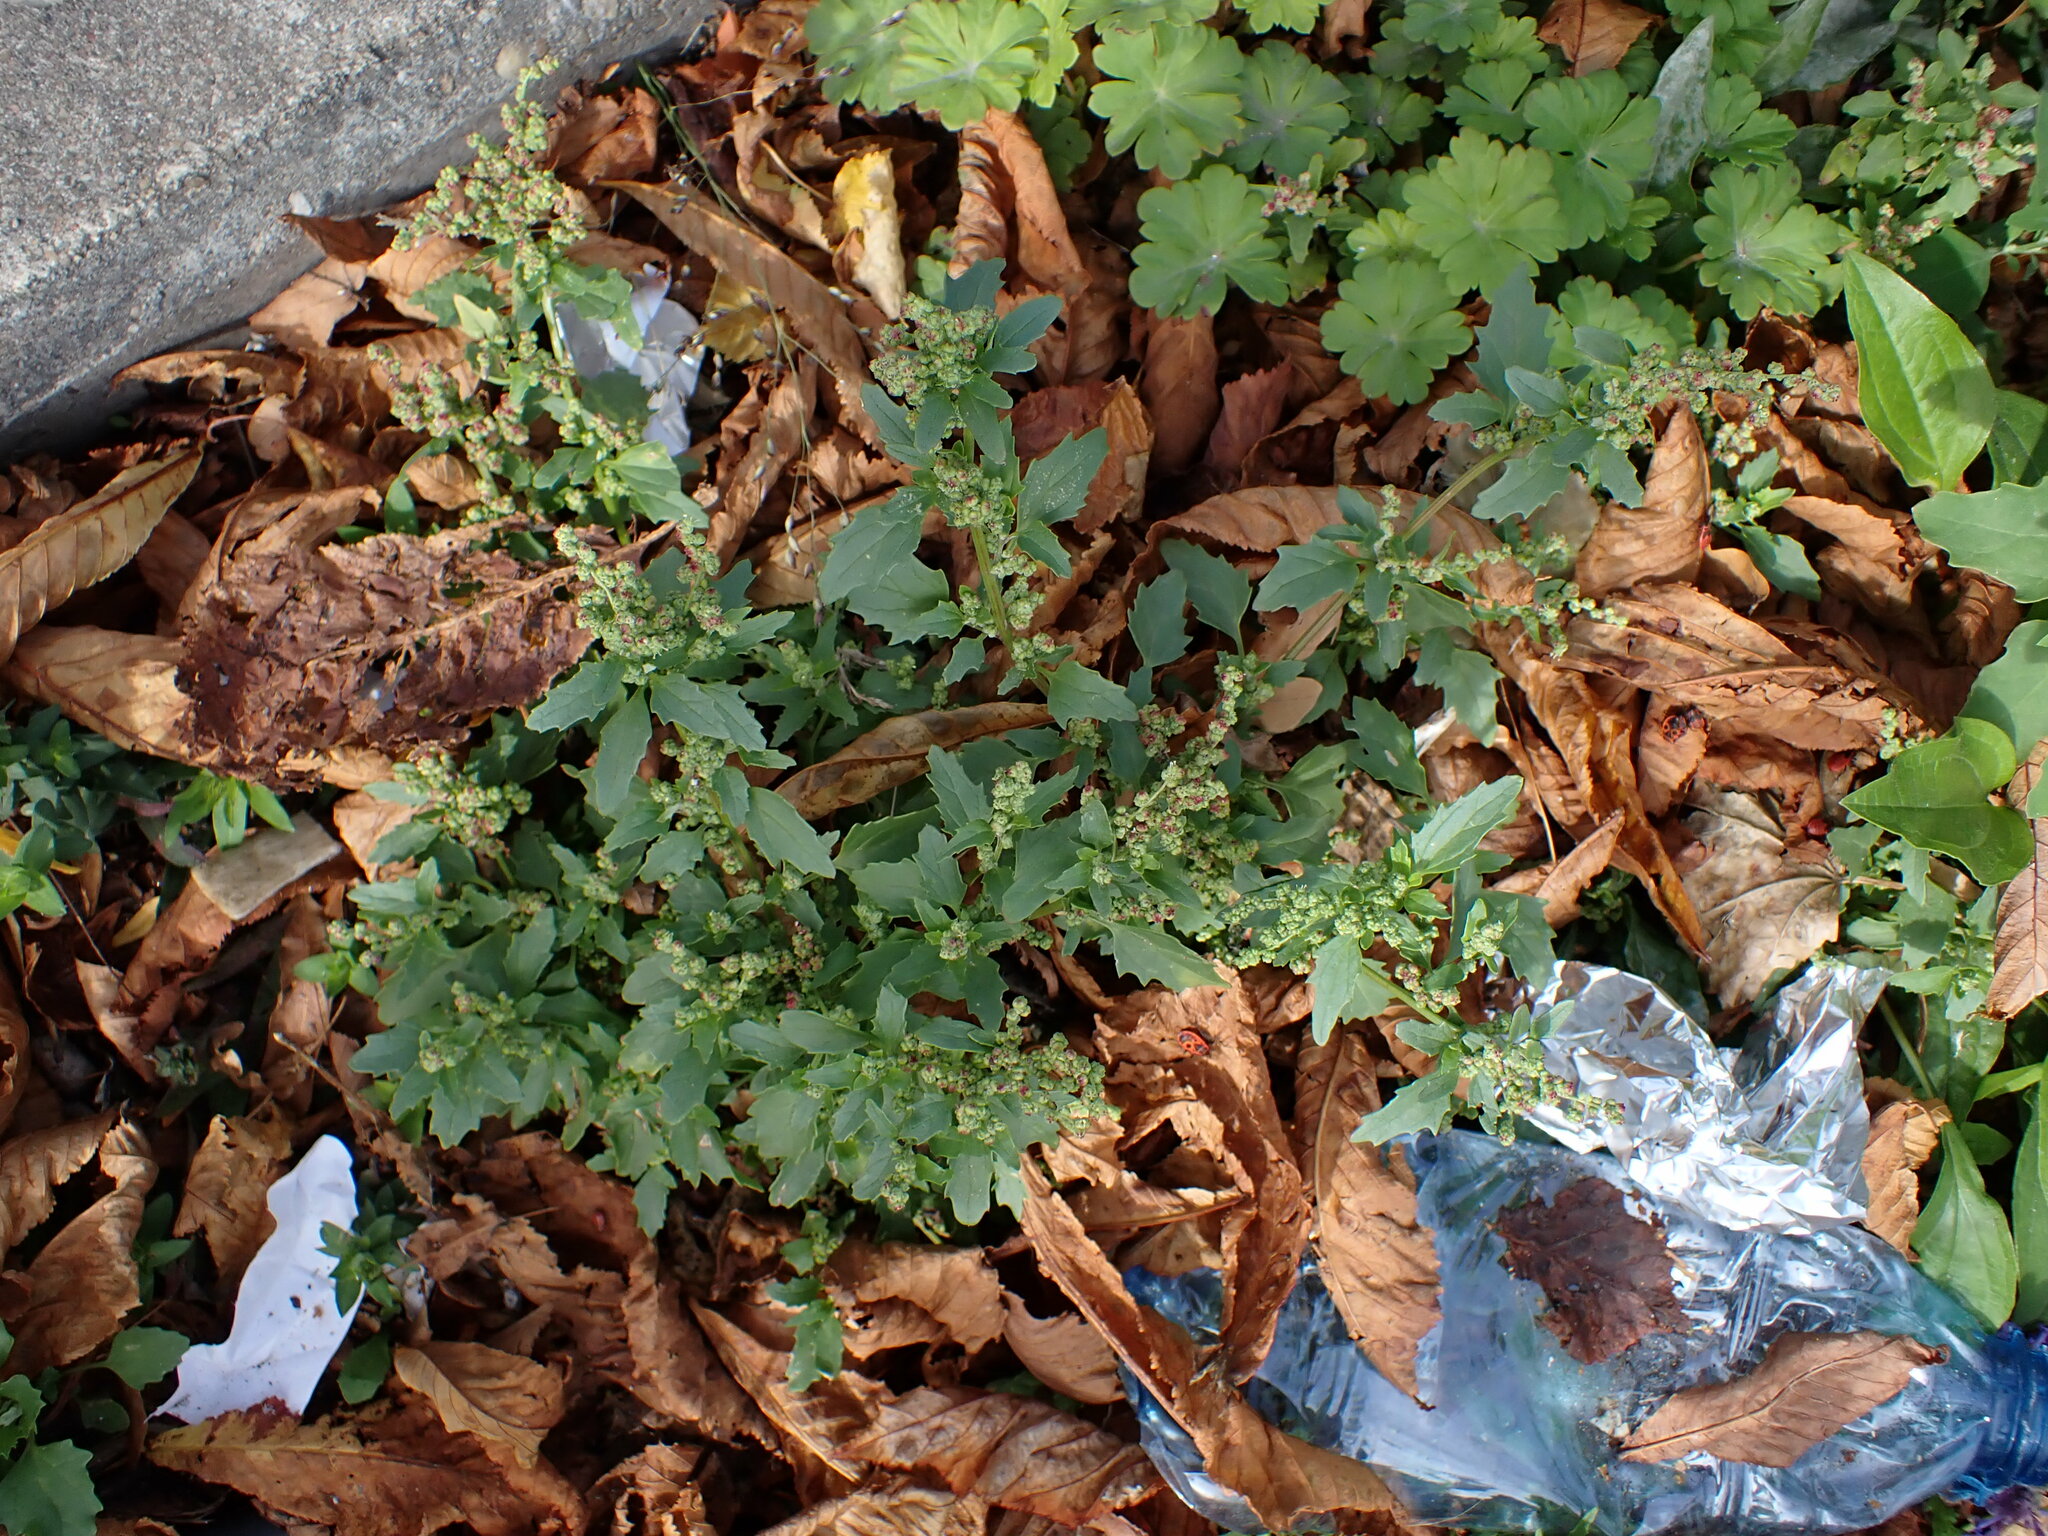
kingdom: Plantae
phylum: Tracheophyta
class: Magnoliopsida
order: Caryophyllales
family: Amaranthaceae
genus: Oxybasis
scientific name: Oxybasis glauca
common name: Glaucous goosefoot
